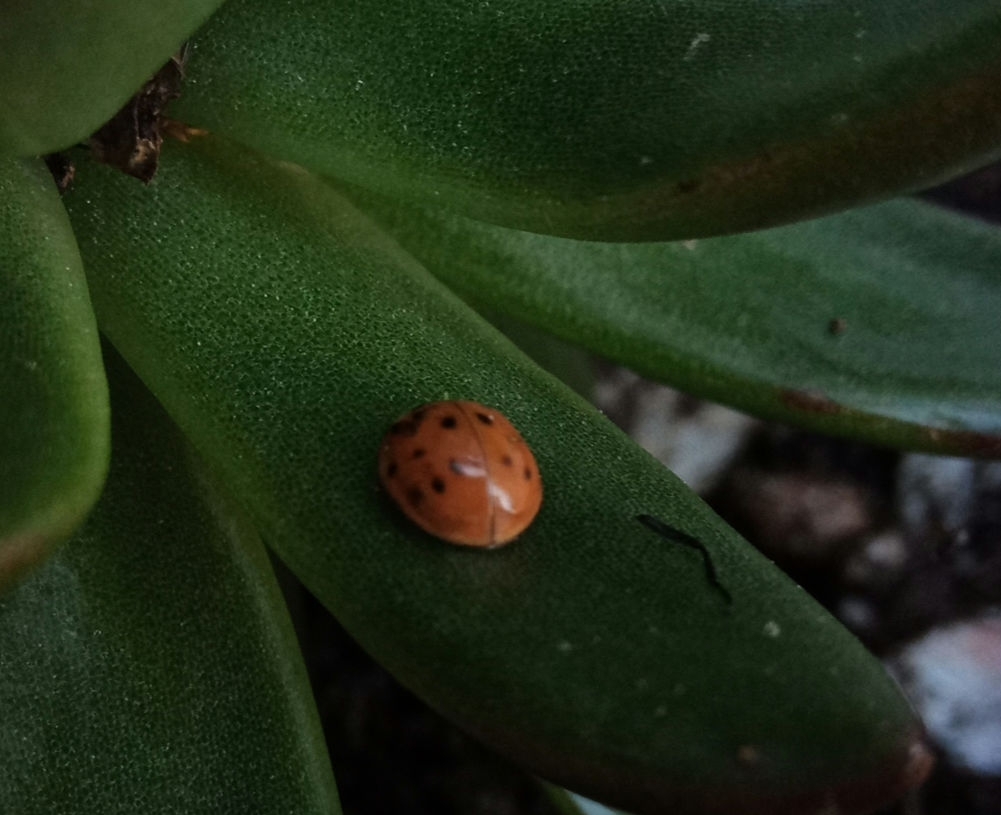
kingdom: Animalia
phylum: Arthropoda
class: Insecta
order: Coleoptera
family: Coccinellidae
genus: Harmonia
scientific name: Harmonia axyridis
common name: Harlequin ladybird
